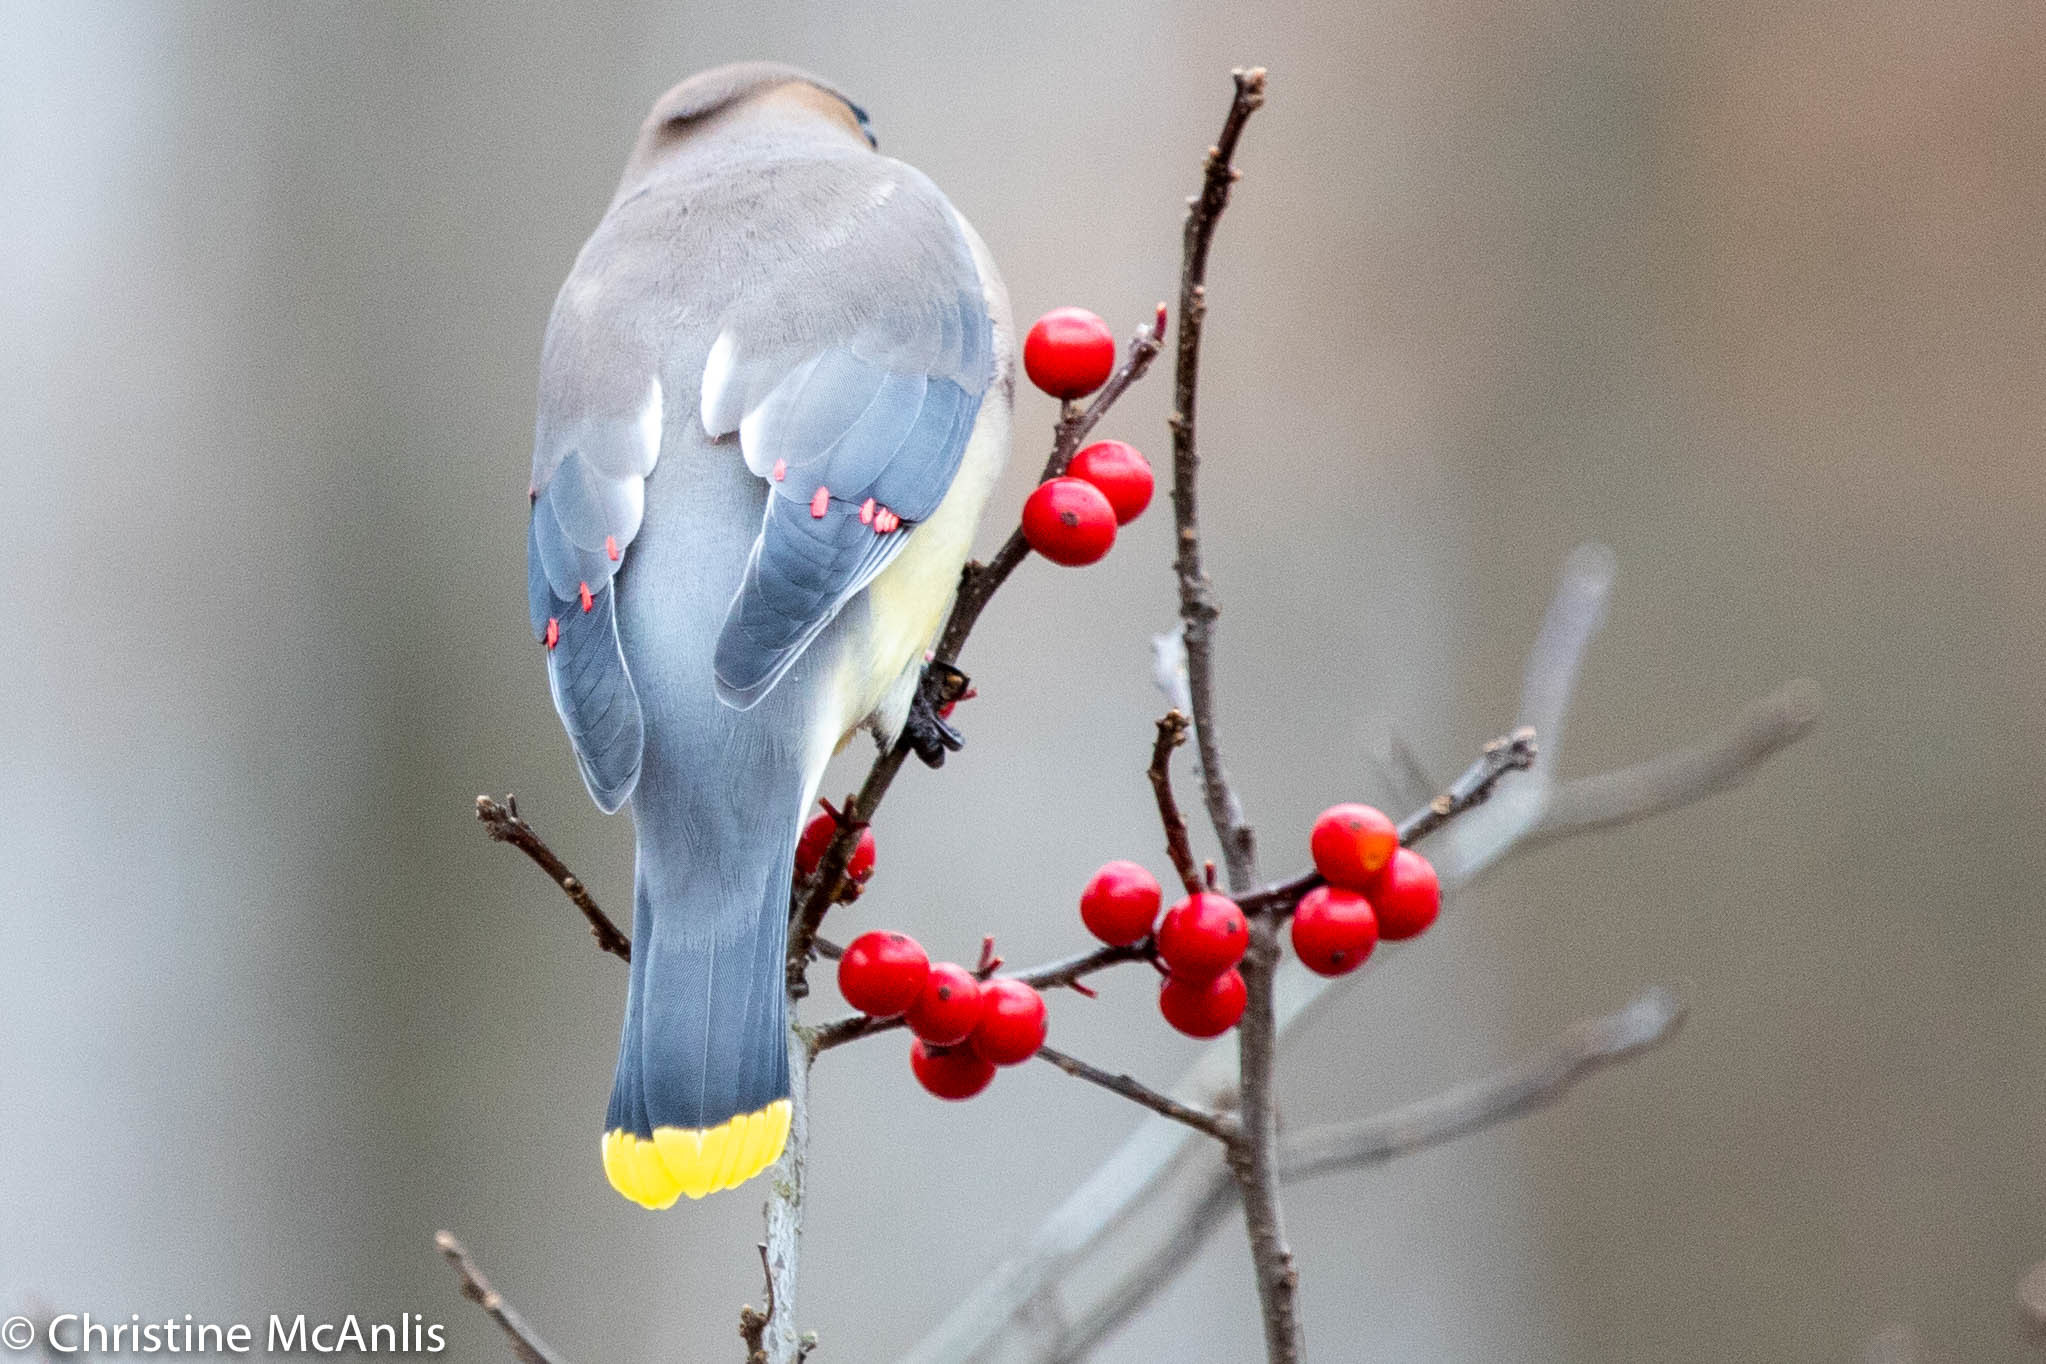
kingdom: Animalia
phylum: Chordata
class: Aves
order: Passeriformes
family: Bombycillidae
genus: Bombycilla
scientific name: Bombycilla cedrorum
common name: Cedar waxwing
